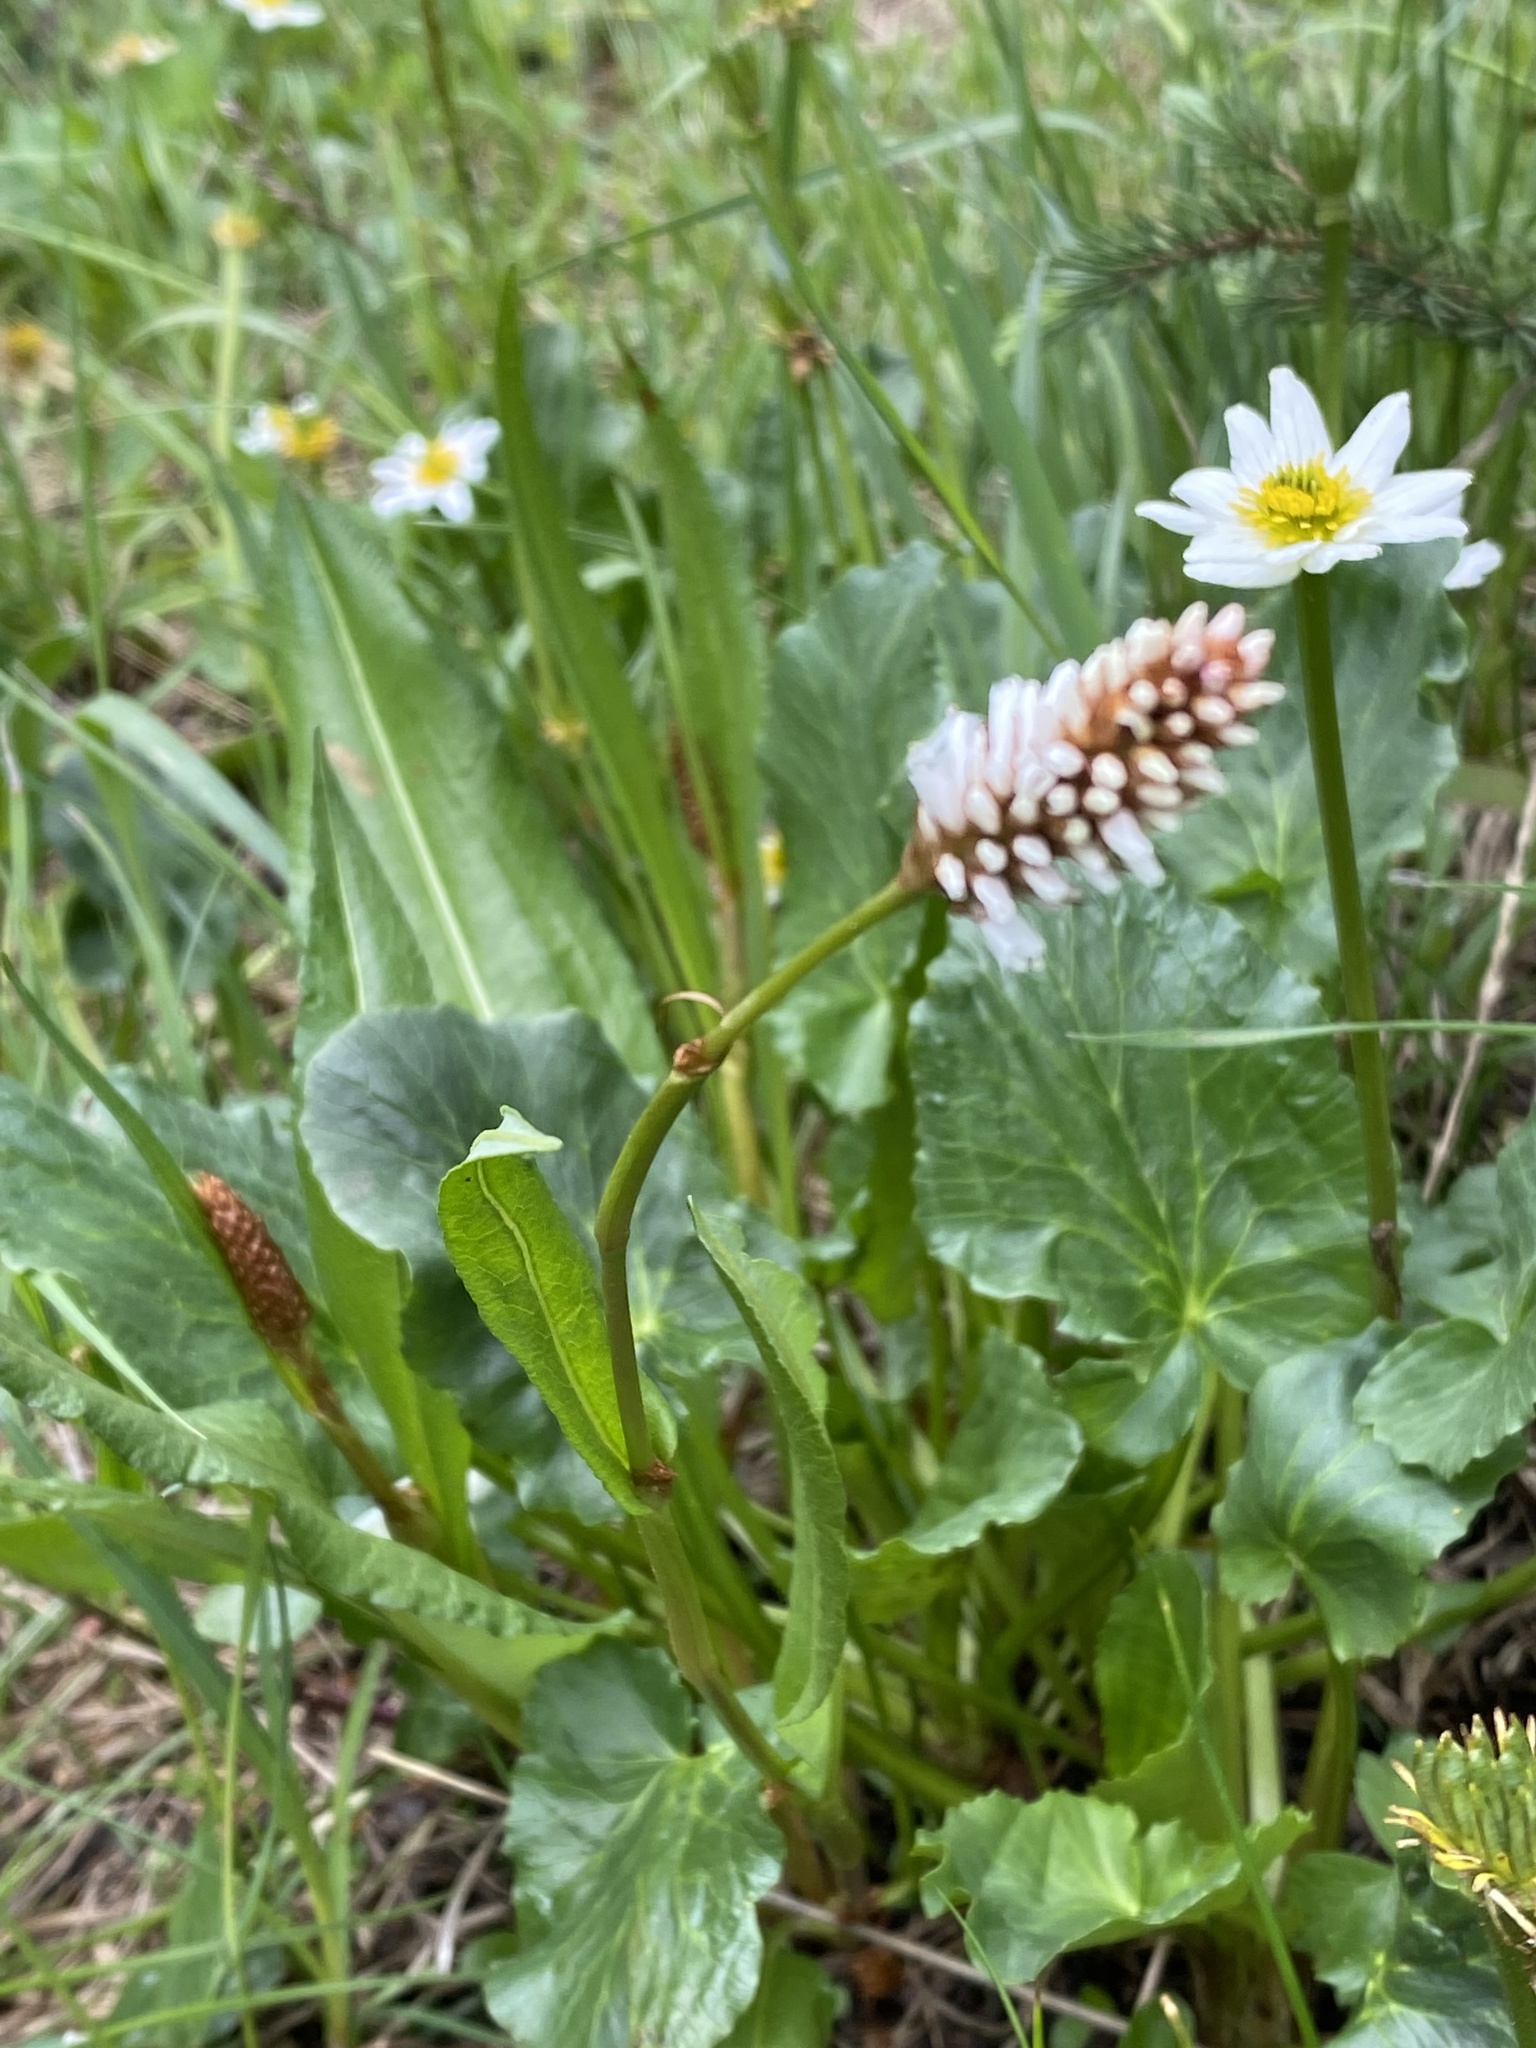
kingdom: Plantae
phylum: Tracheophyta
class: Magnoliopsida
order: Caryophyllales
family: Polygonaceae
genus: Bistorta
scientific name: Bistorta bistortoides
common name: American bistort
